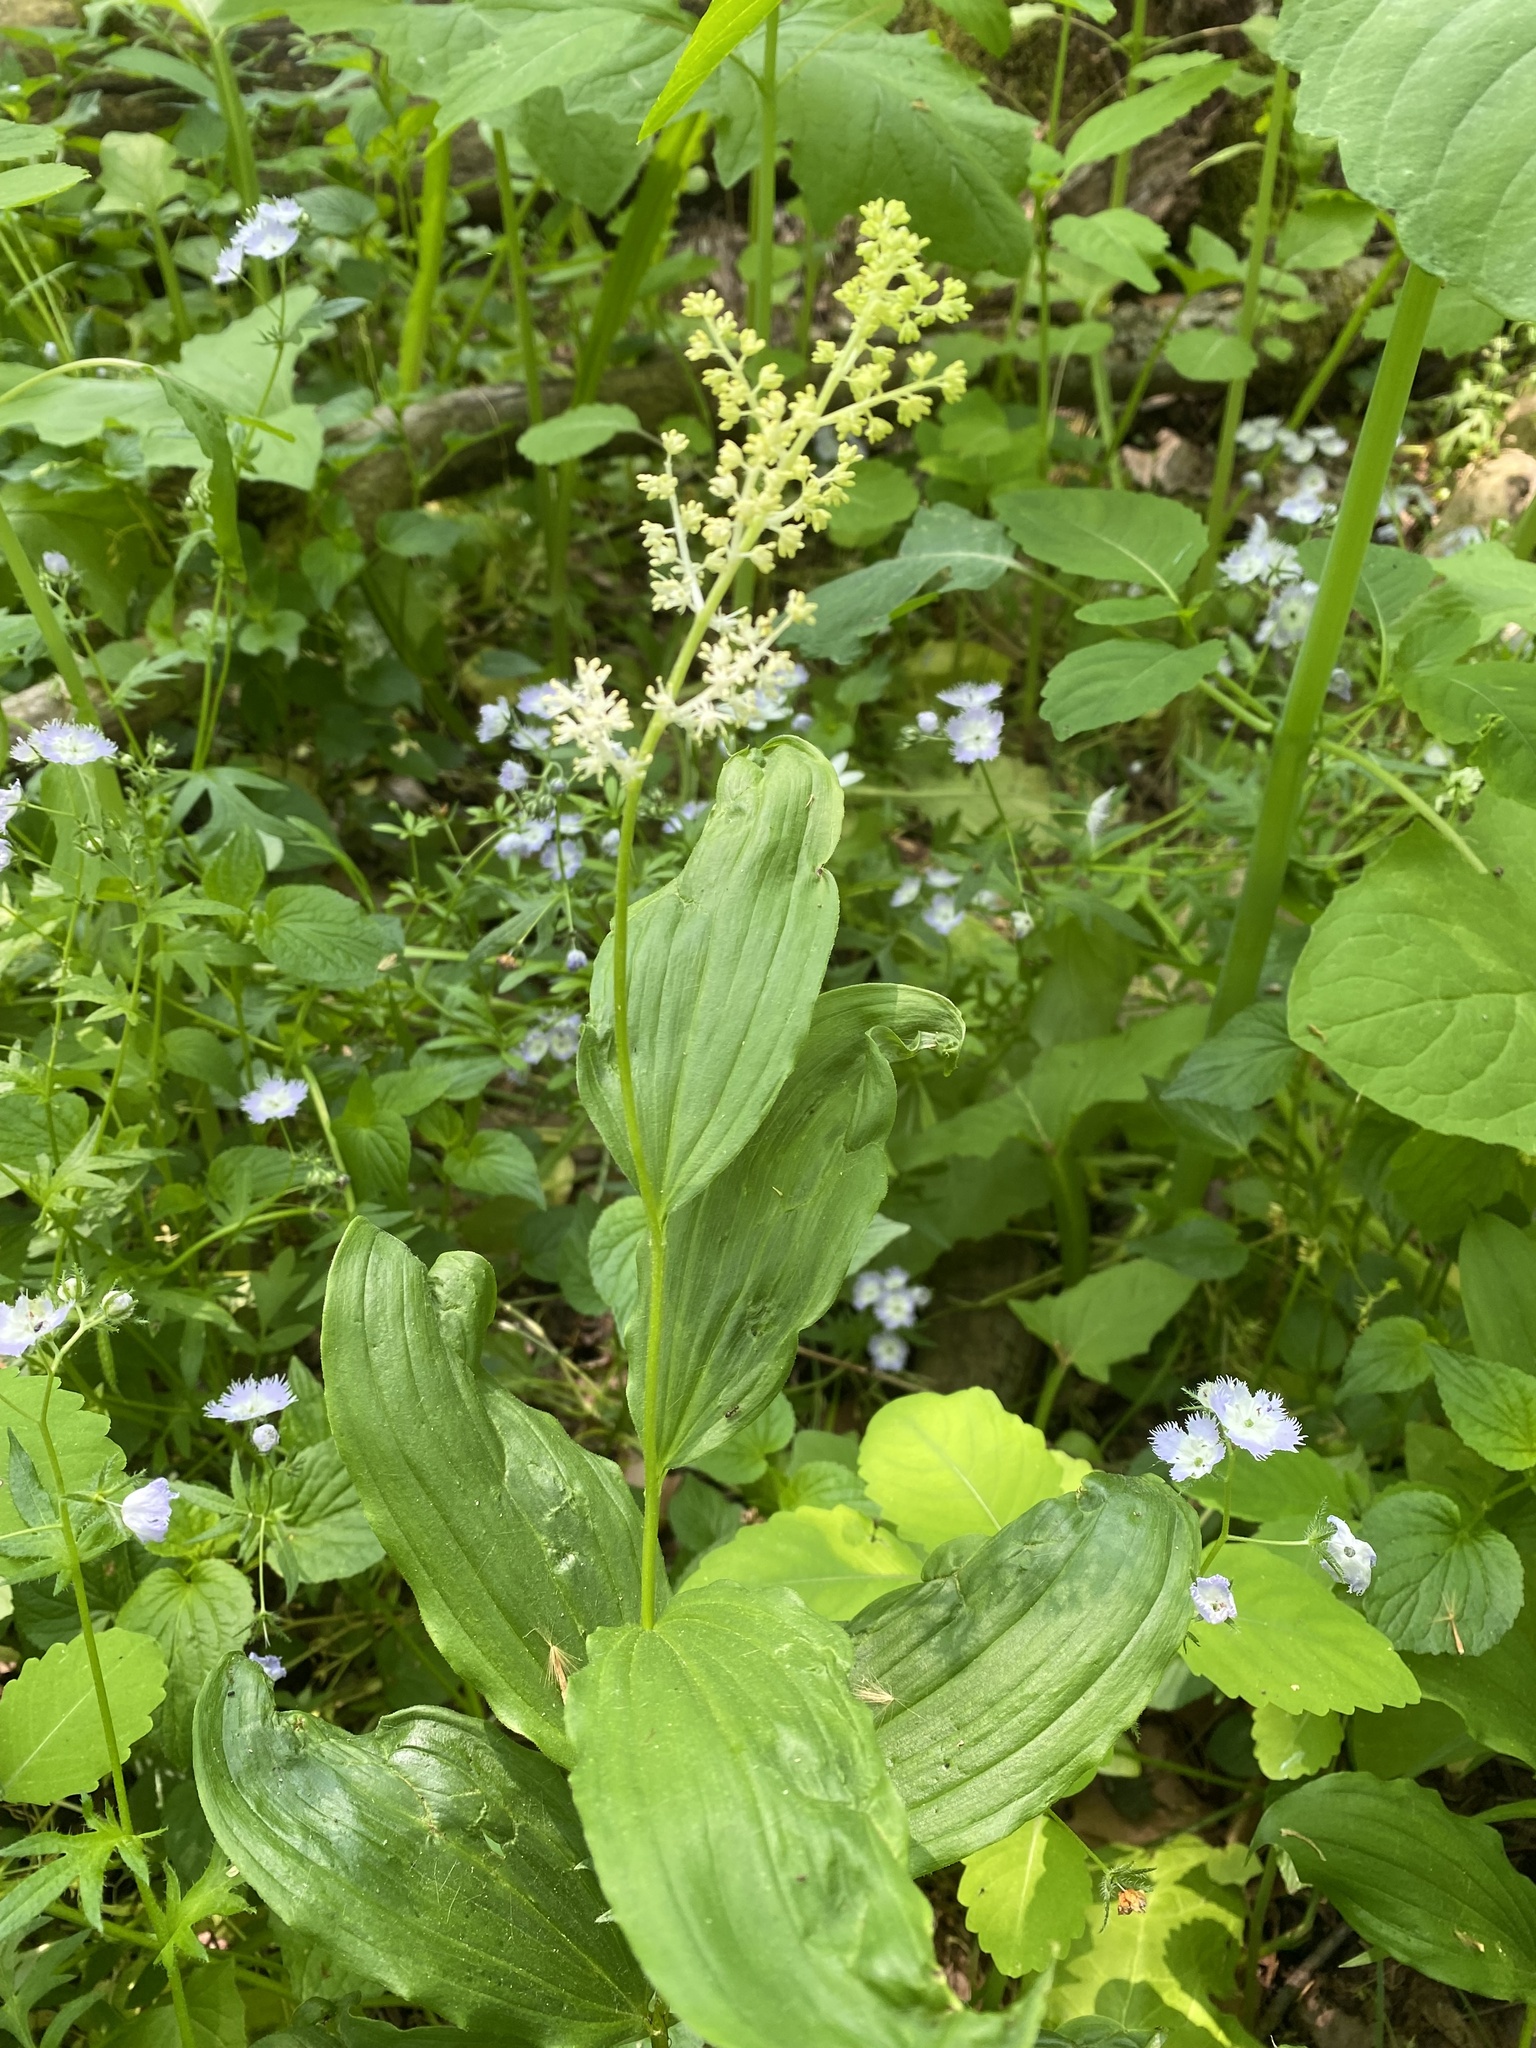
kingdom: Plantae
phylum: Tracheophyta
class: Liliopsida
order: Asparagales
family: Asparagaceae
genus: Maianthemum
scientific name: Maianthemum racemosum
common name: False spikenard
